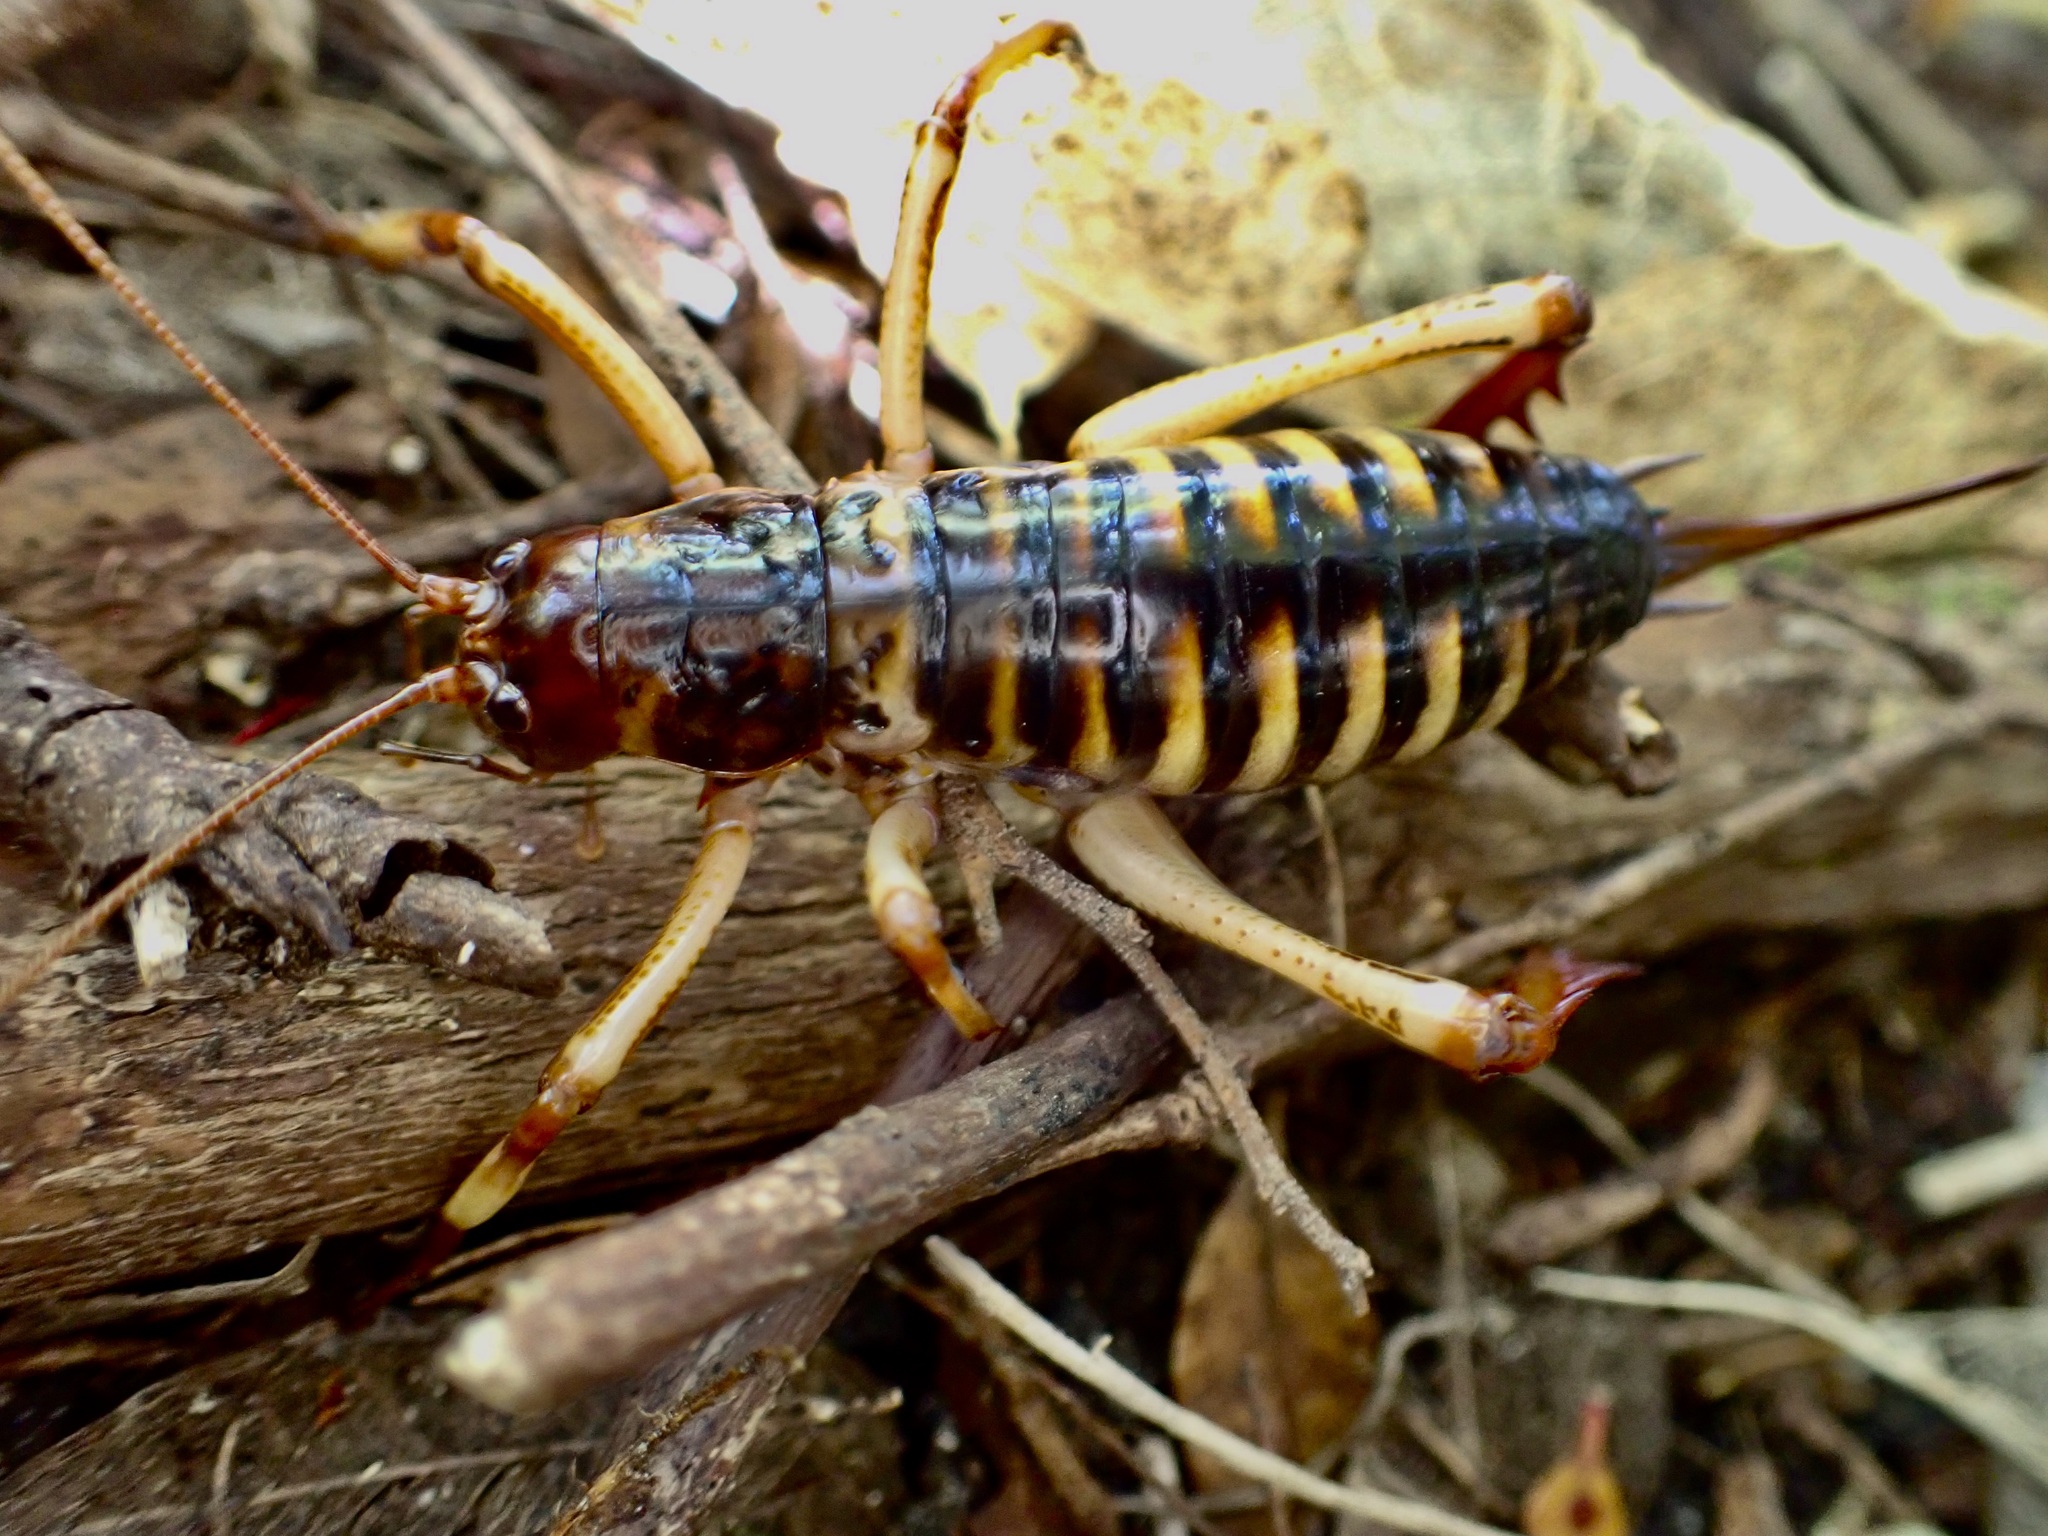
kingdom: Animalia
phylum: Arthropoda
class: Insecta
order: Orthoptera
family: Anostostomatidae
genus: Hemideina
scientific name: Hemideina crassidens
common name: Wellington tree weta
